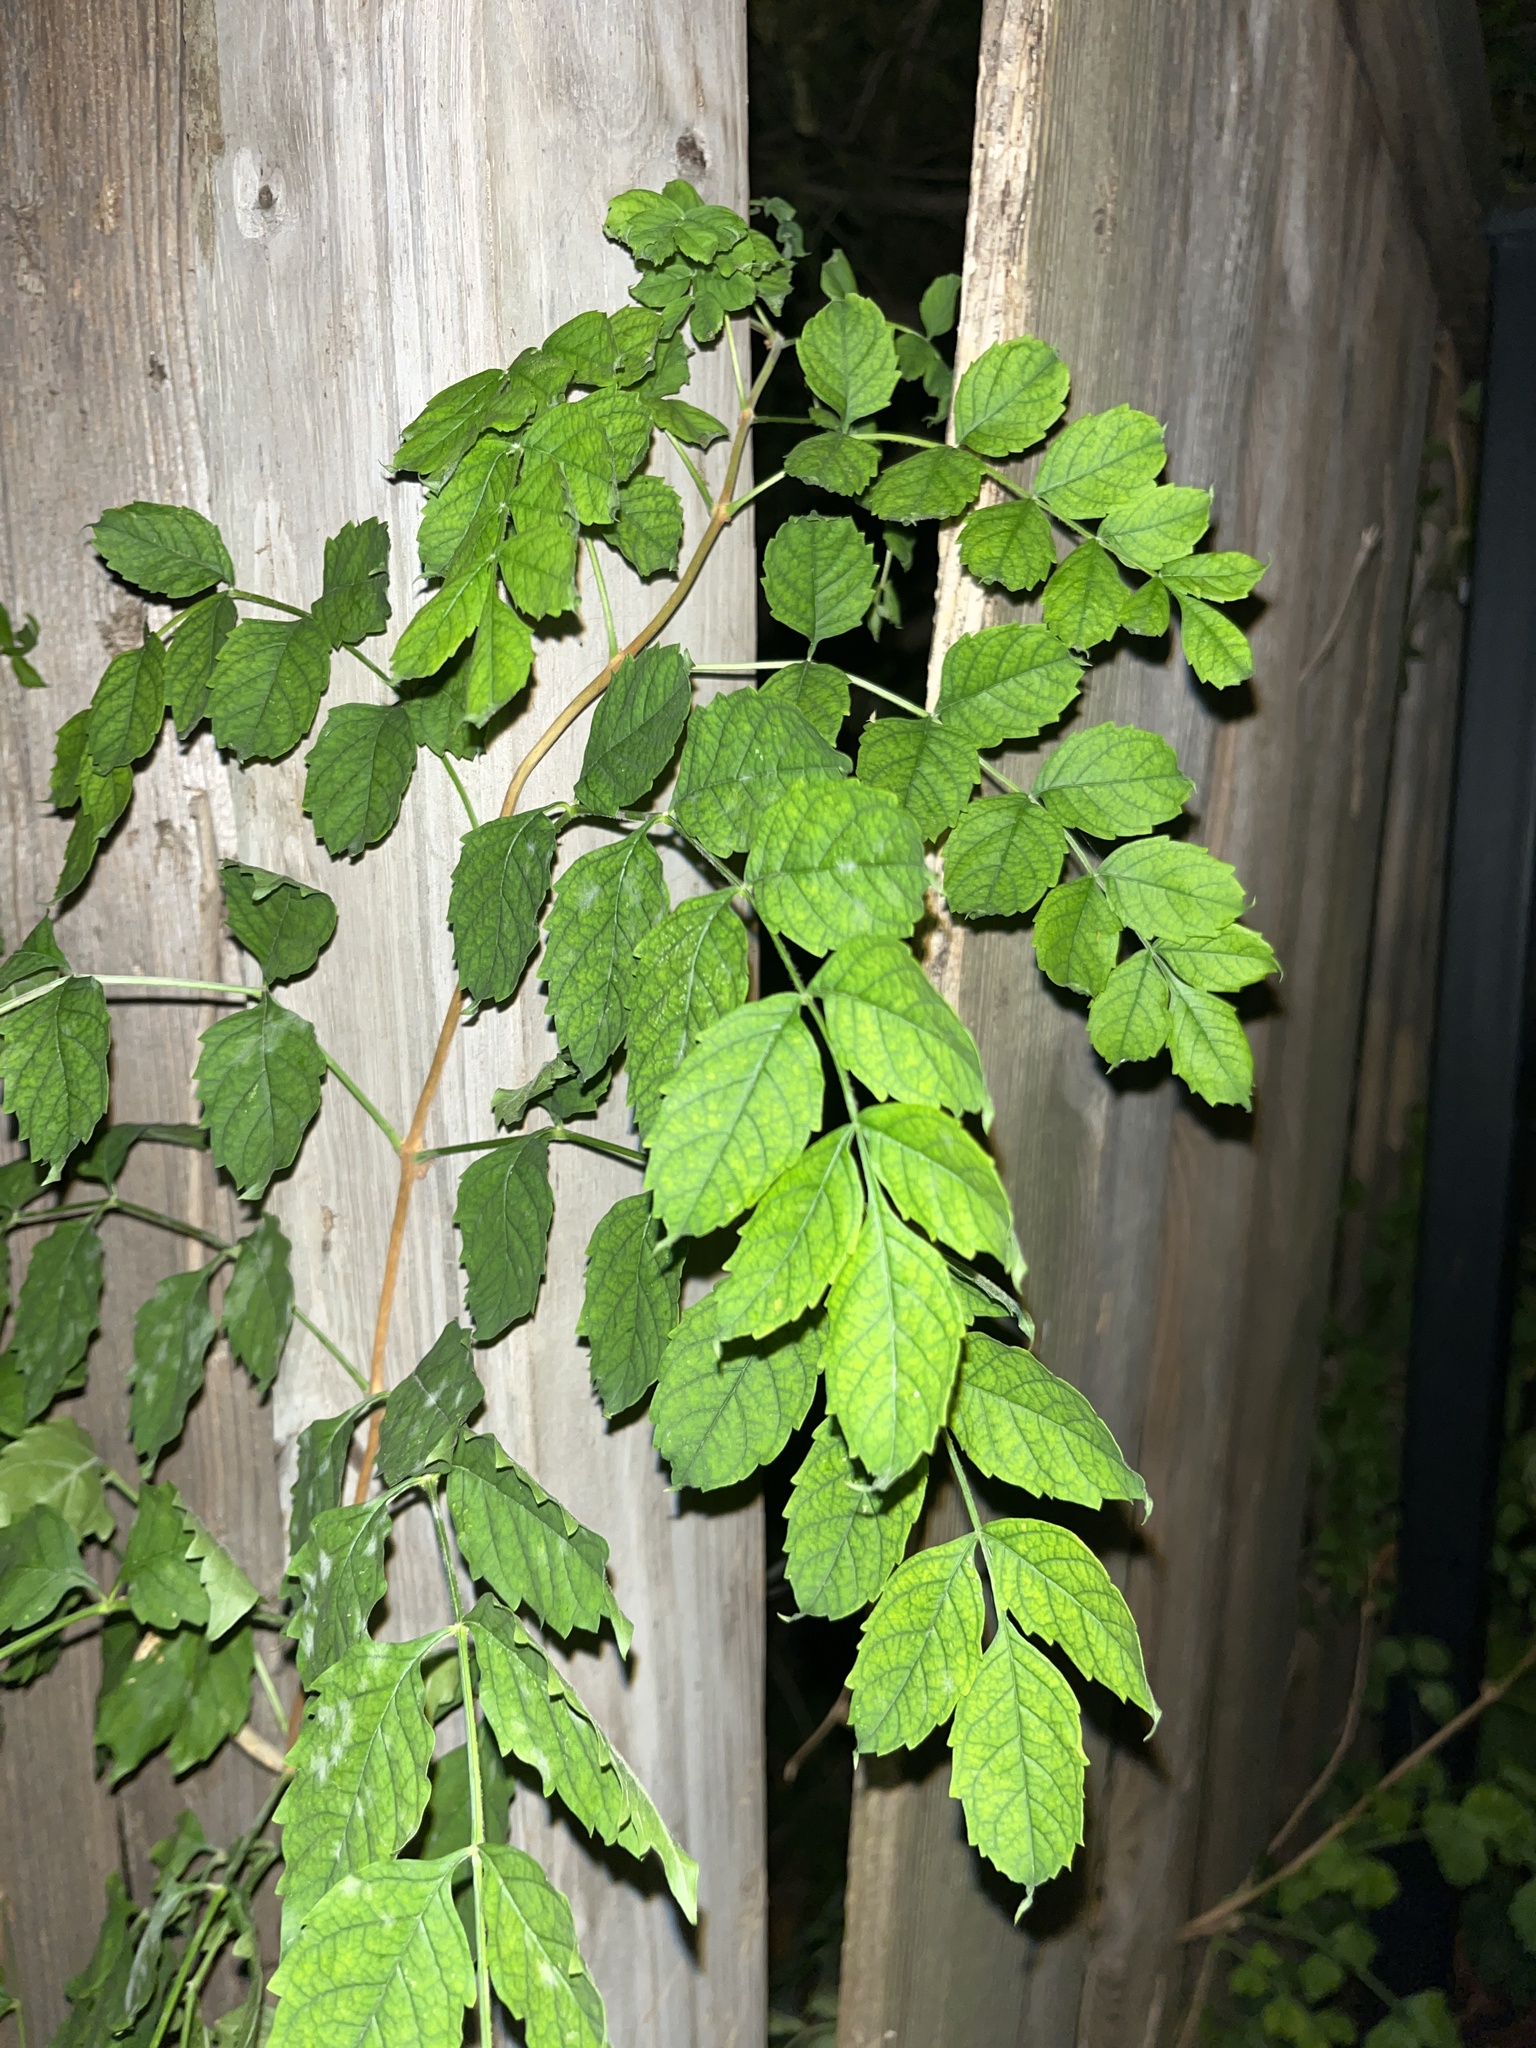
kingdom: Plantae
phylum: Tracheophyta
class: Magnoliopsida
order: Lamiales
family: Bignoniaceae
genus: Campsis
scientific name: Campsis radicans
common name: Trumpet-creeper
